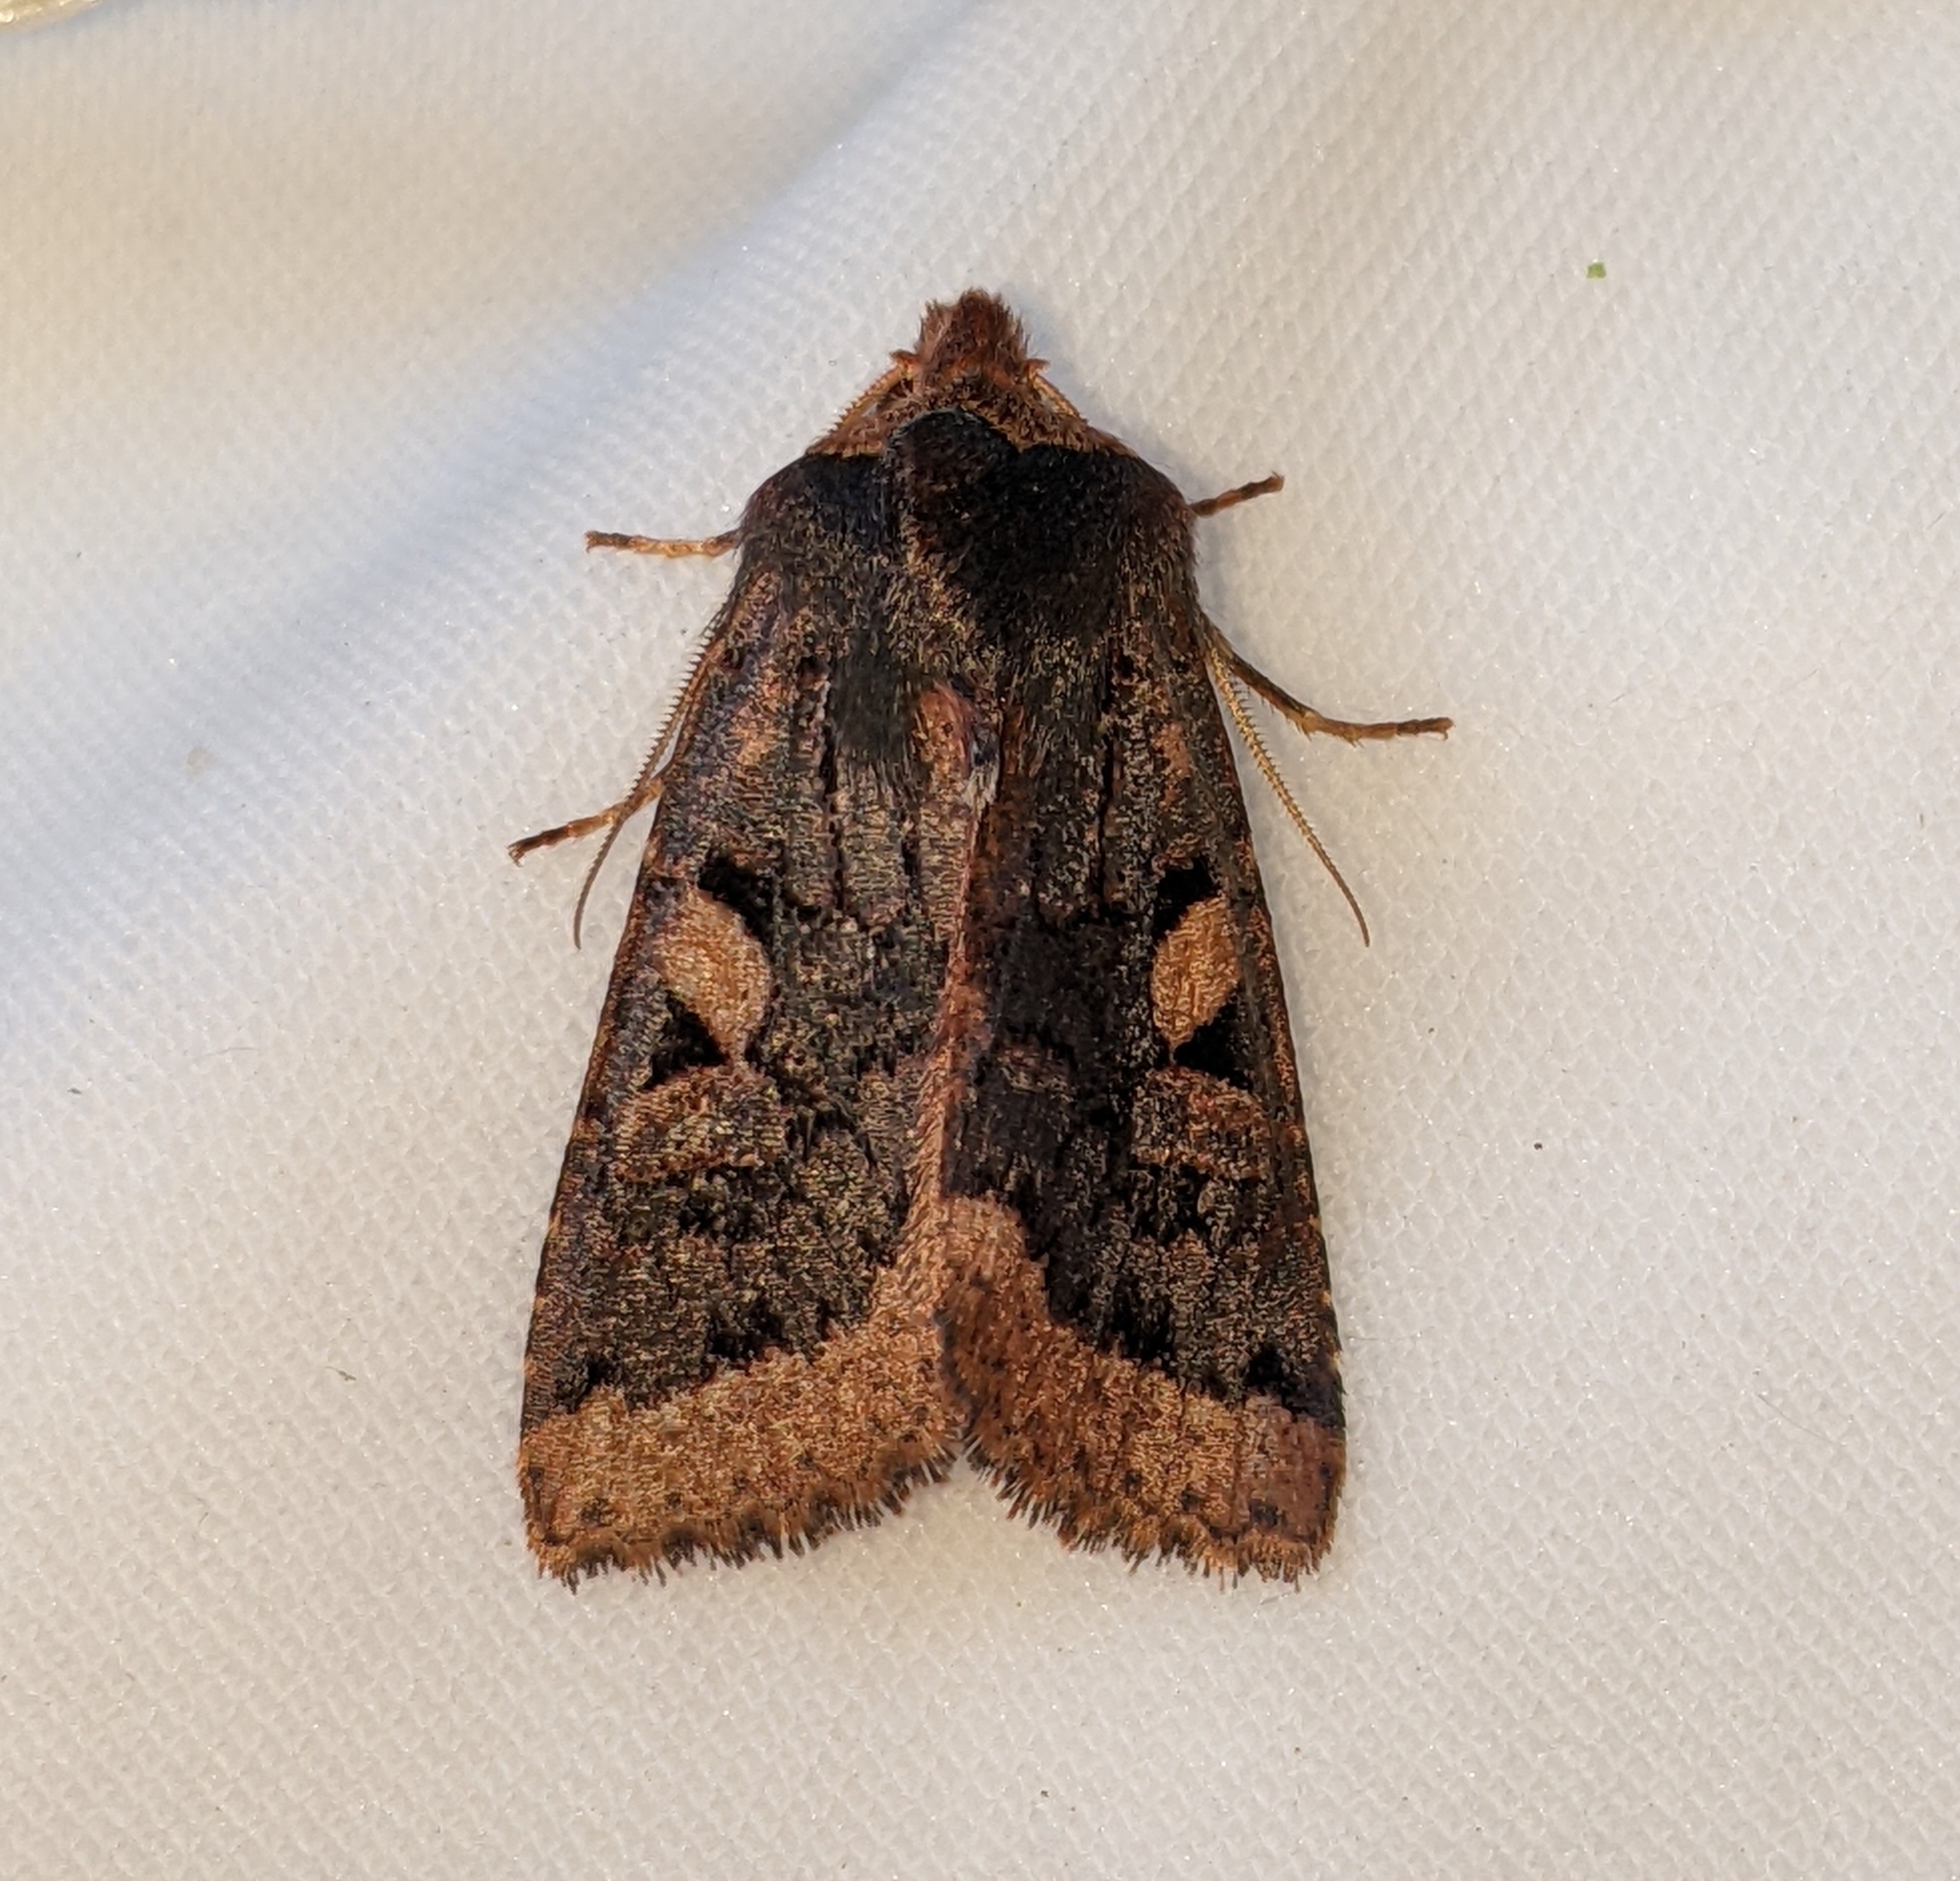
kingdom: Animalia
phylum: Arthropoda
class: Insecta
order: Lepidoptera
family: Noctuidae
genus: Orthosia
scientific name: Orthosia praeses
